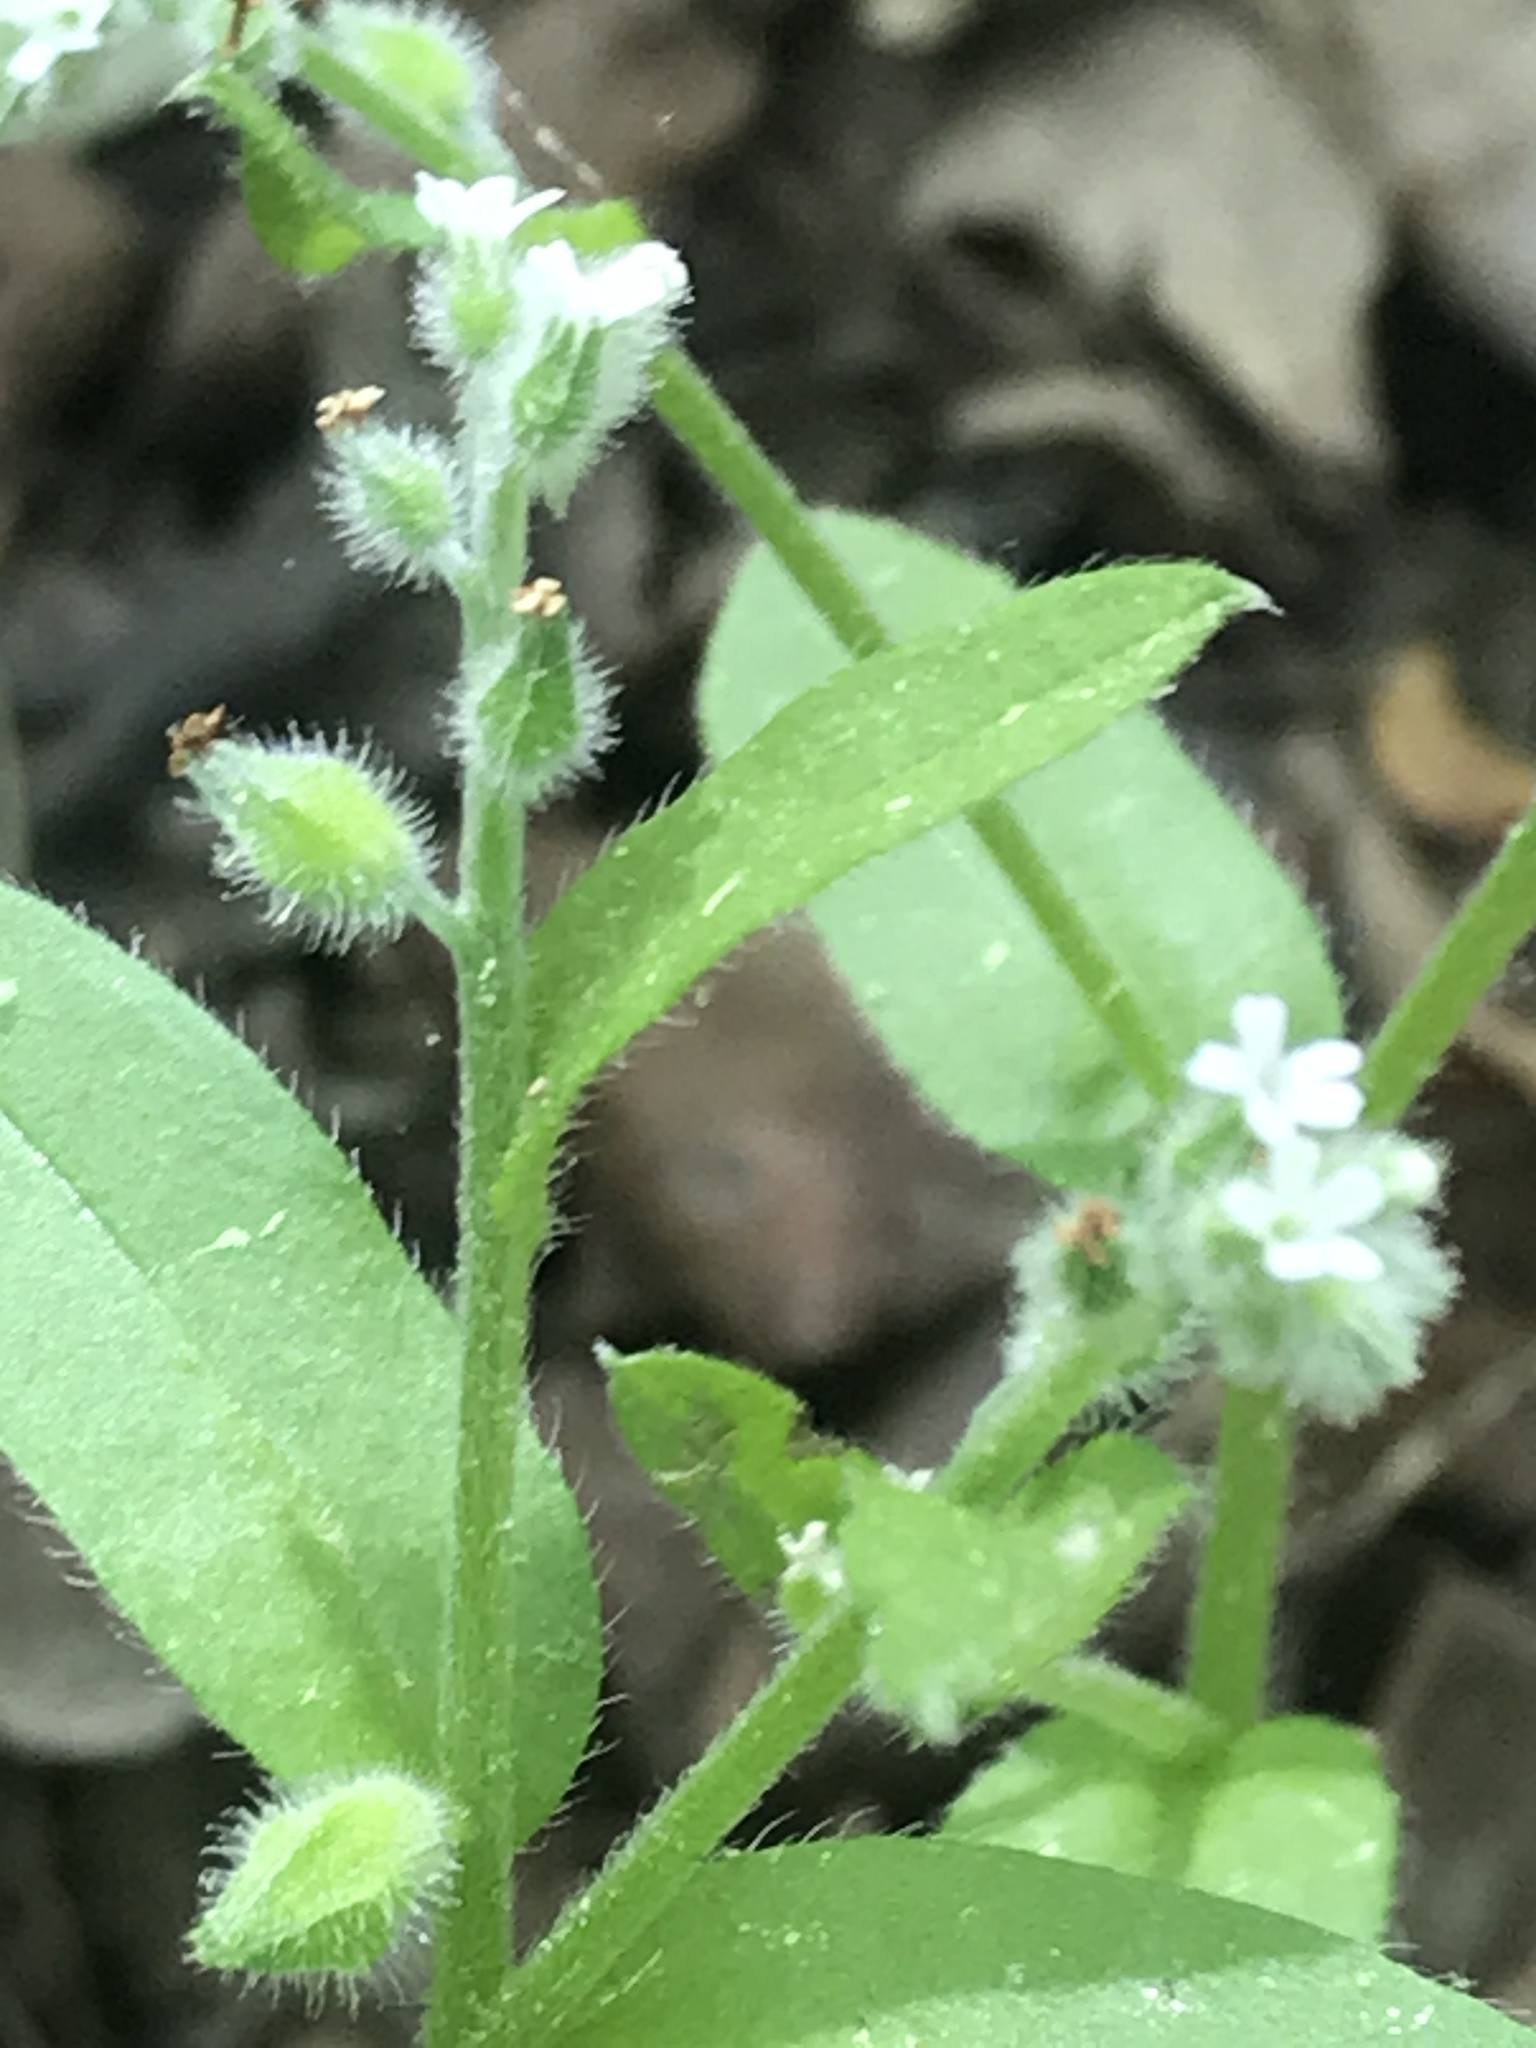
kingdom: Plantae
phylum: Tracheophyta
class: Magnoliopsida
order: Boraginales
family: Boraginaceae
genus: Myosotis
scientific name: Myosotis macrosperma
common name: Large-seed forget-me-not
